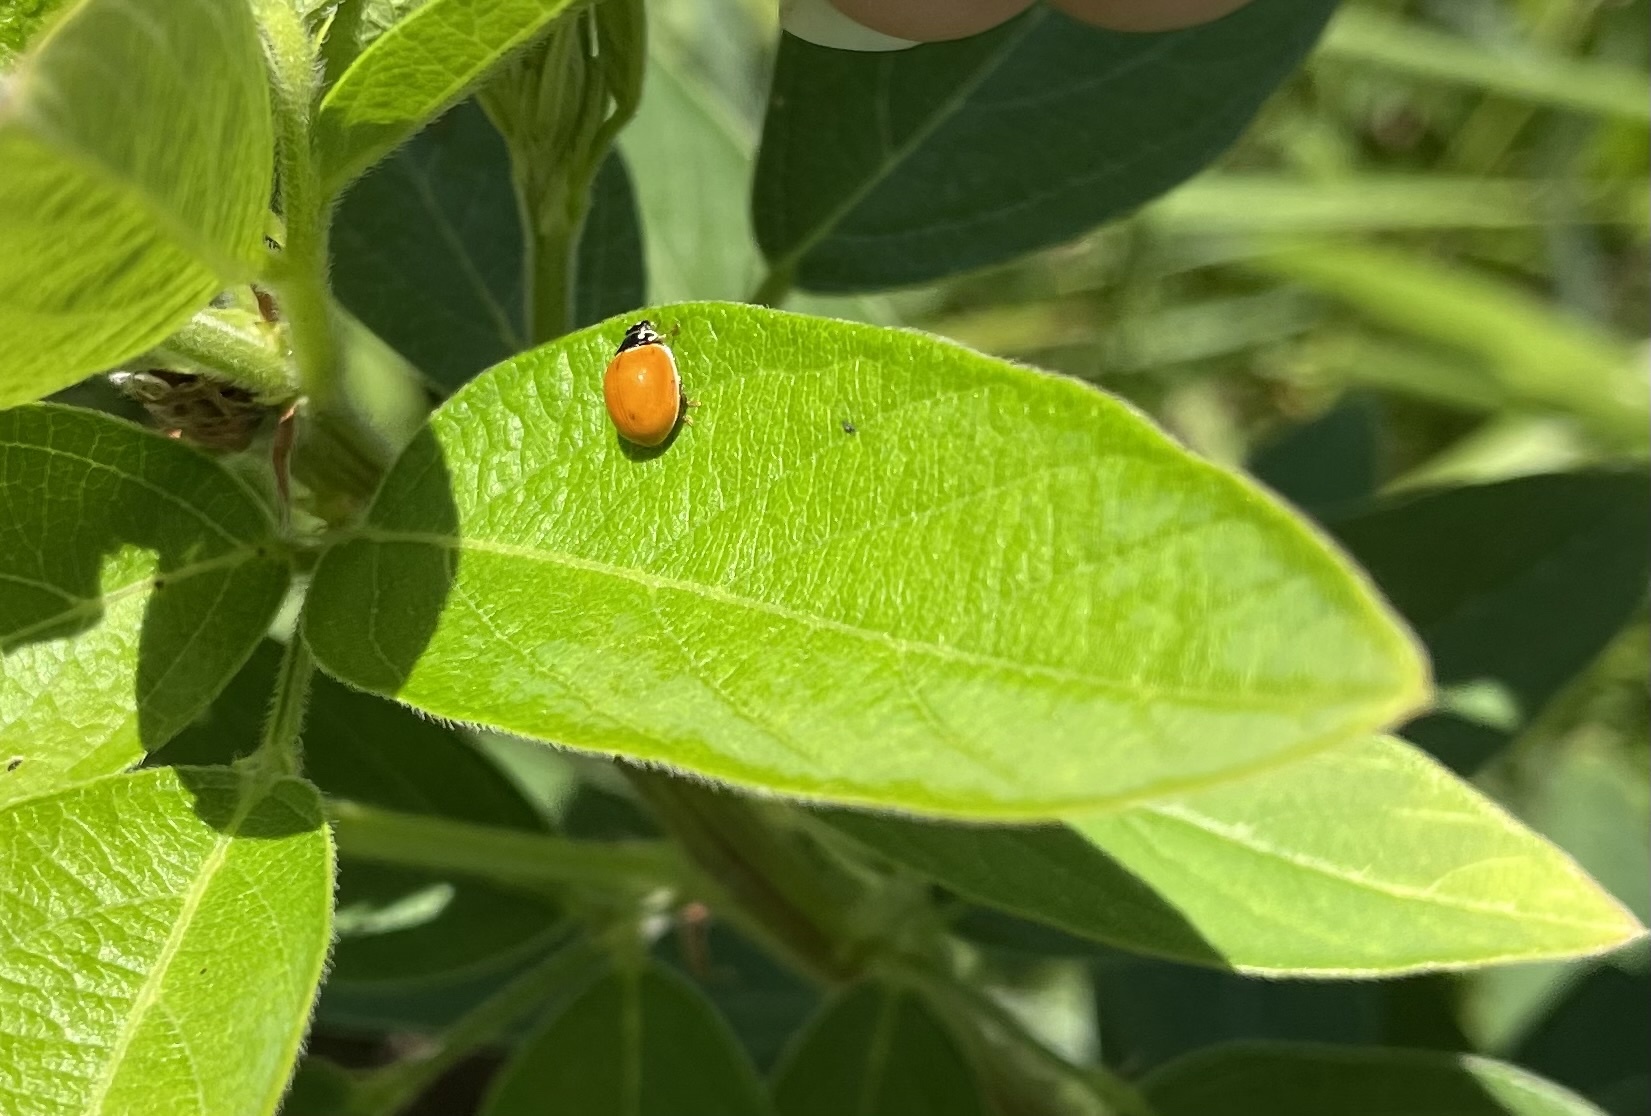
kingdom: Animalia
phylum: Arthropoda
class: Insecta
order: Coleoptera
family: Coccinellidae
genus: Cycloneda
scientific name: Cycloneda munda
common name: Polished lady beetle
